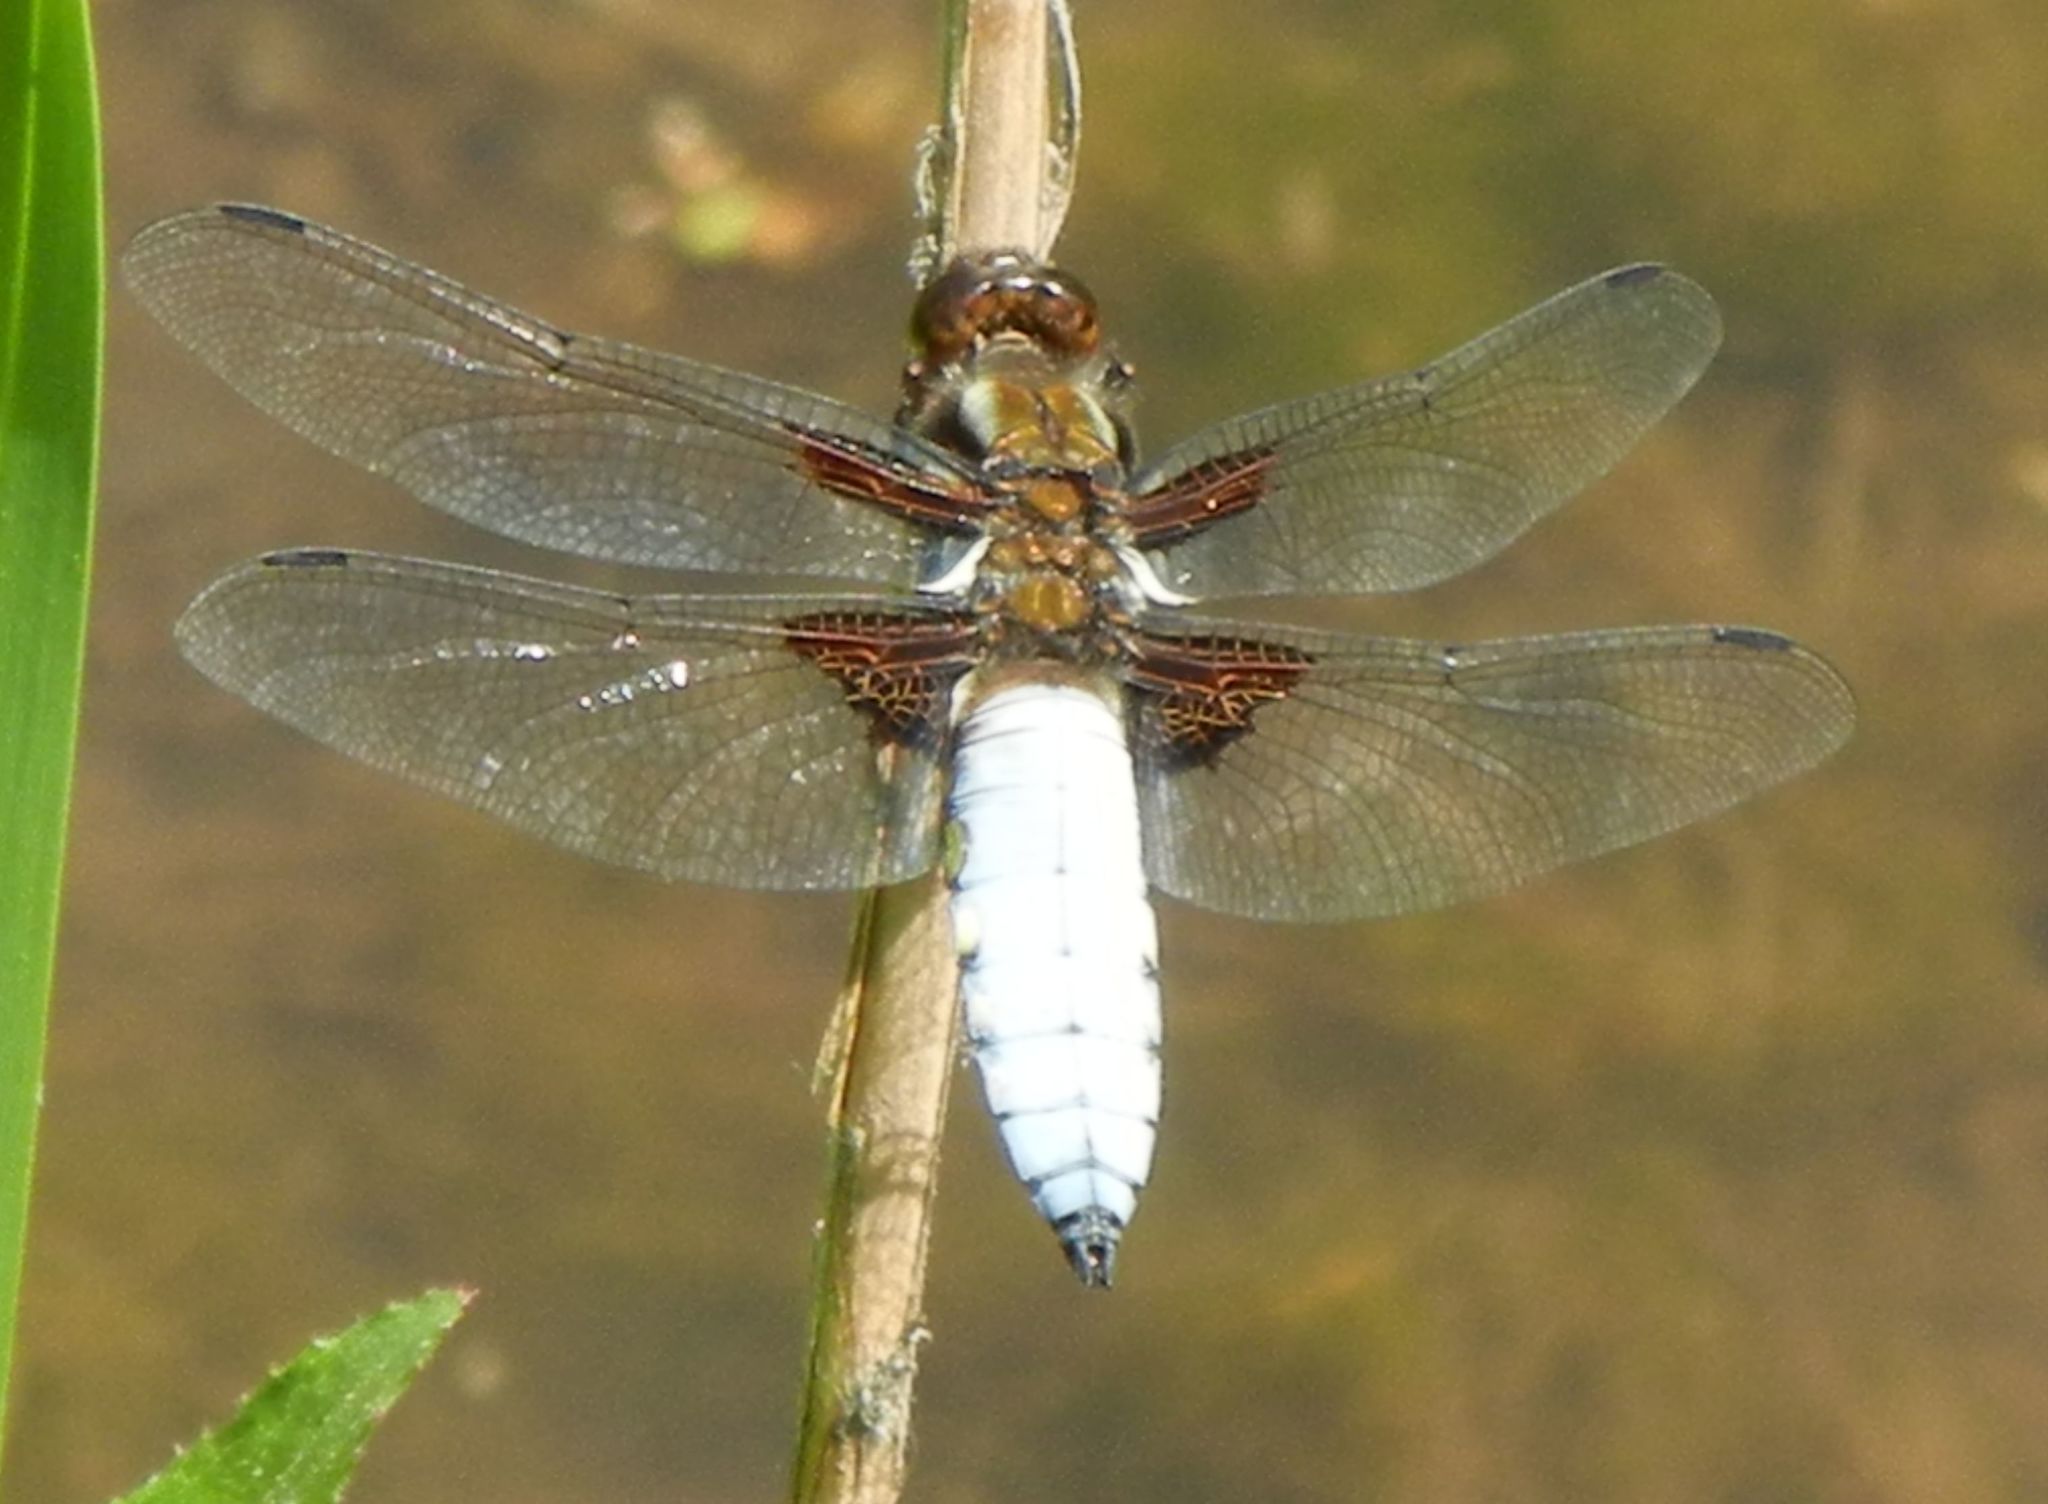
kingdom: Animalia
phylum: Arthropoda
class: Insecta
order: Odonata
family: Libellulidae
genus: Libellula
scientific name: Libellula depressa
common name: Broad-bodied chaser
